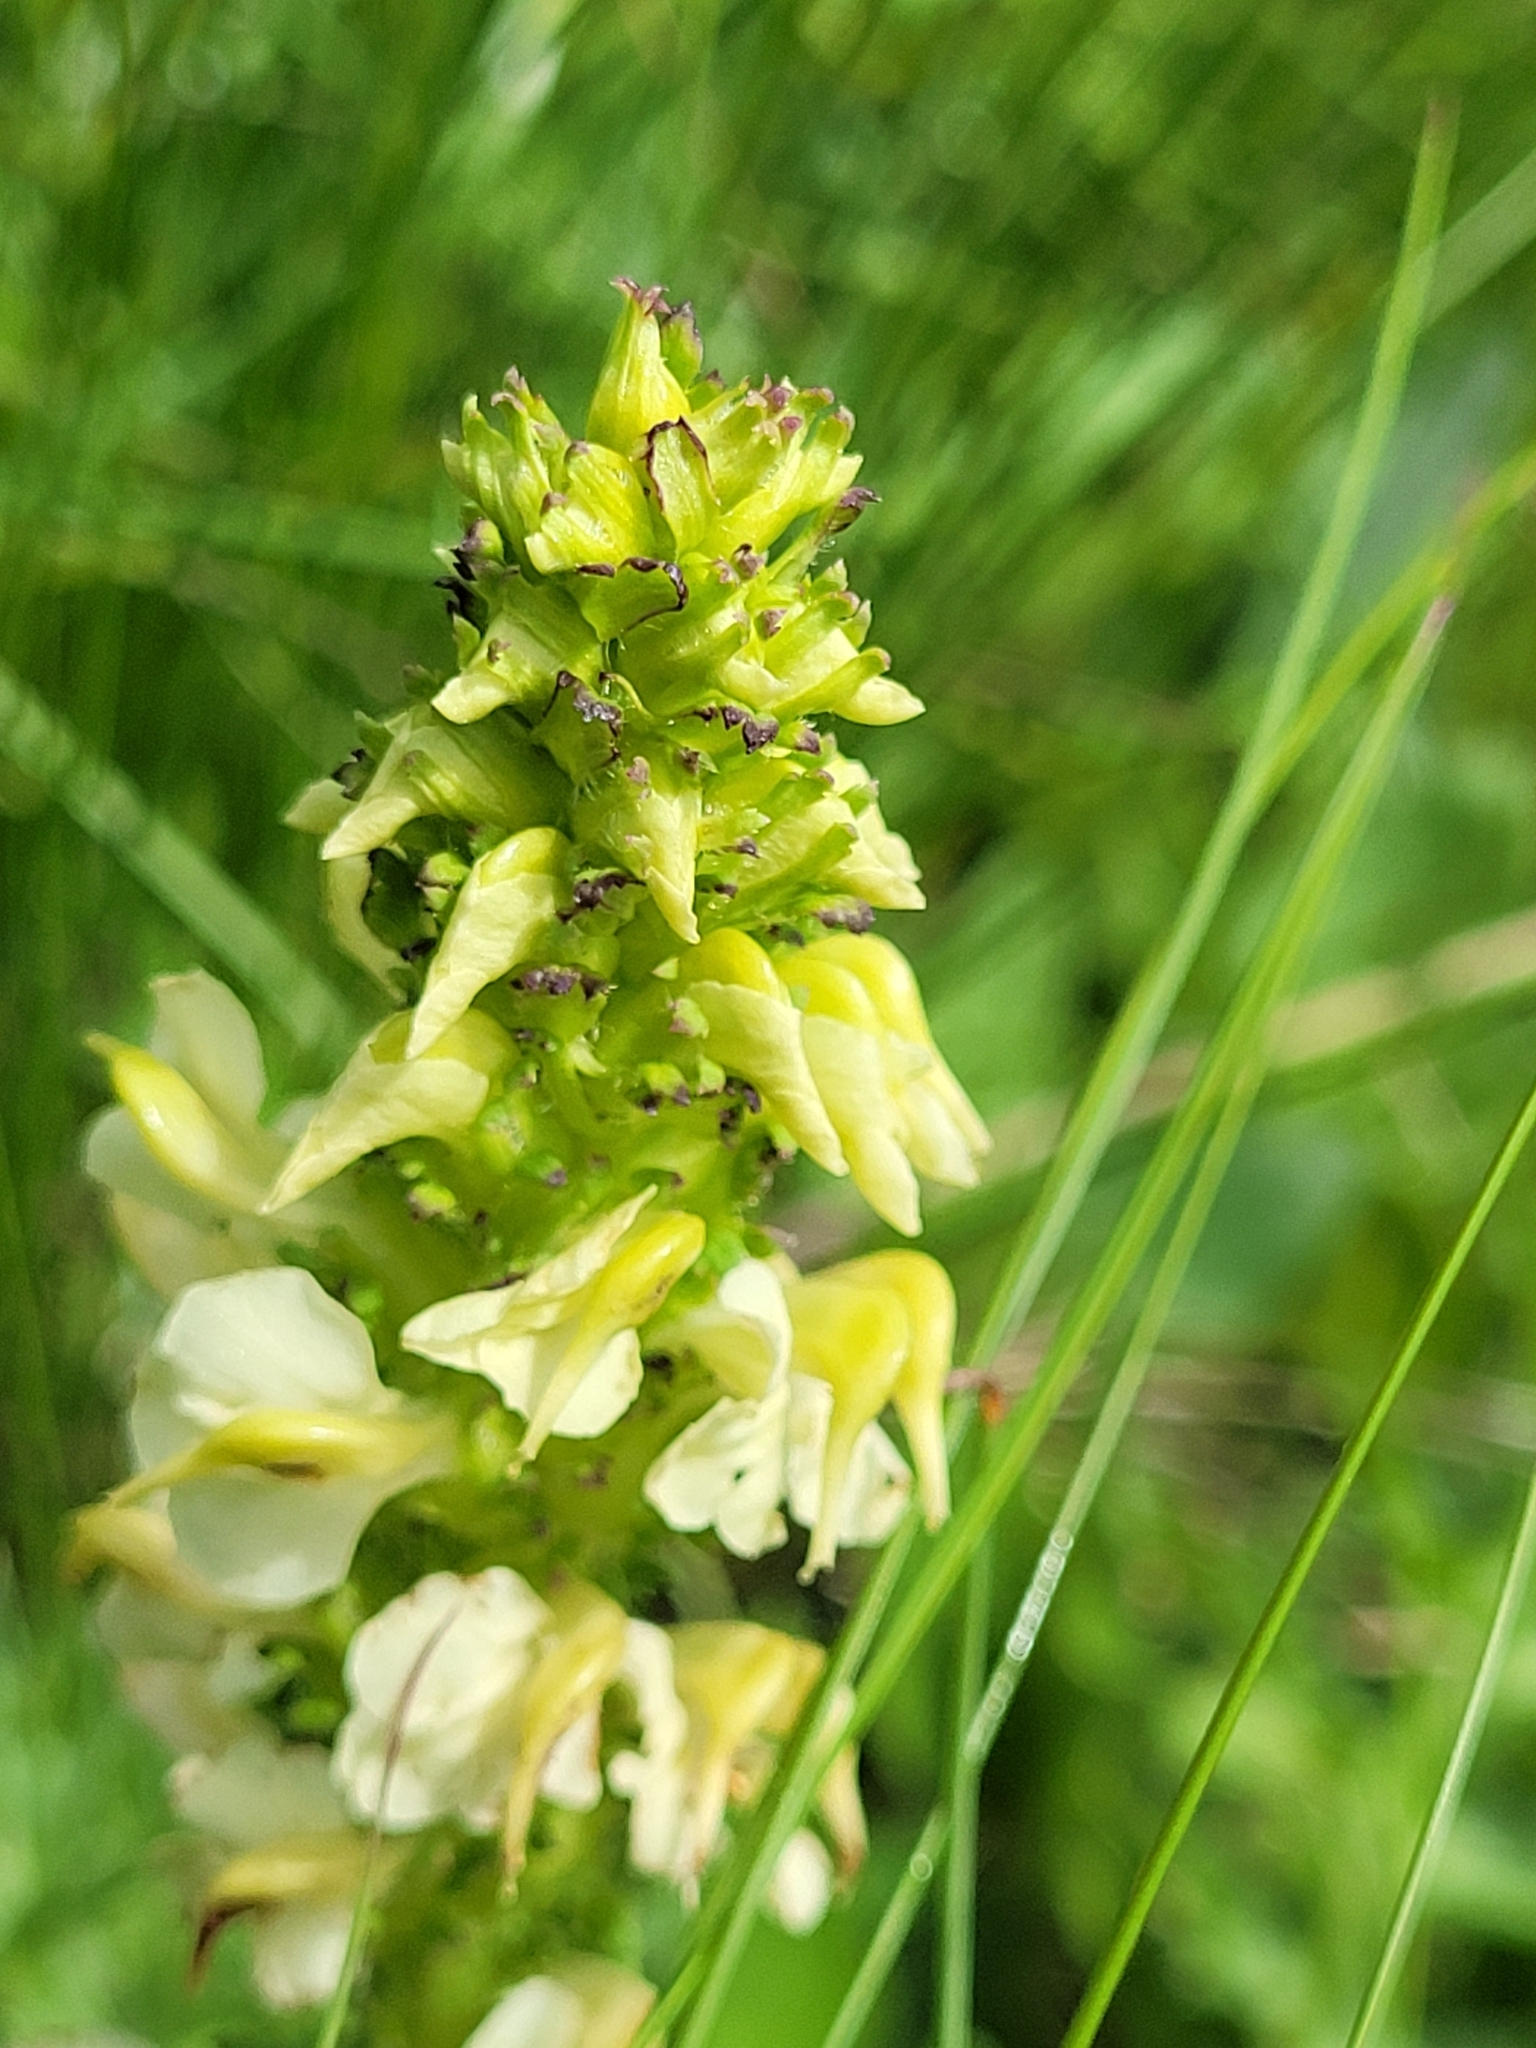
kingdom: Plantae
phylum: Tracheophyta
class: Magnoliopsida
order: Lamiales
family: Orobanchaceae
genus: Pedicularis
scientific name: Pedicularis elongata
